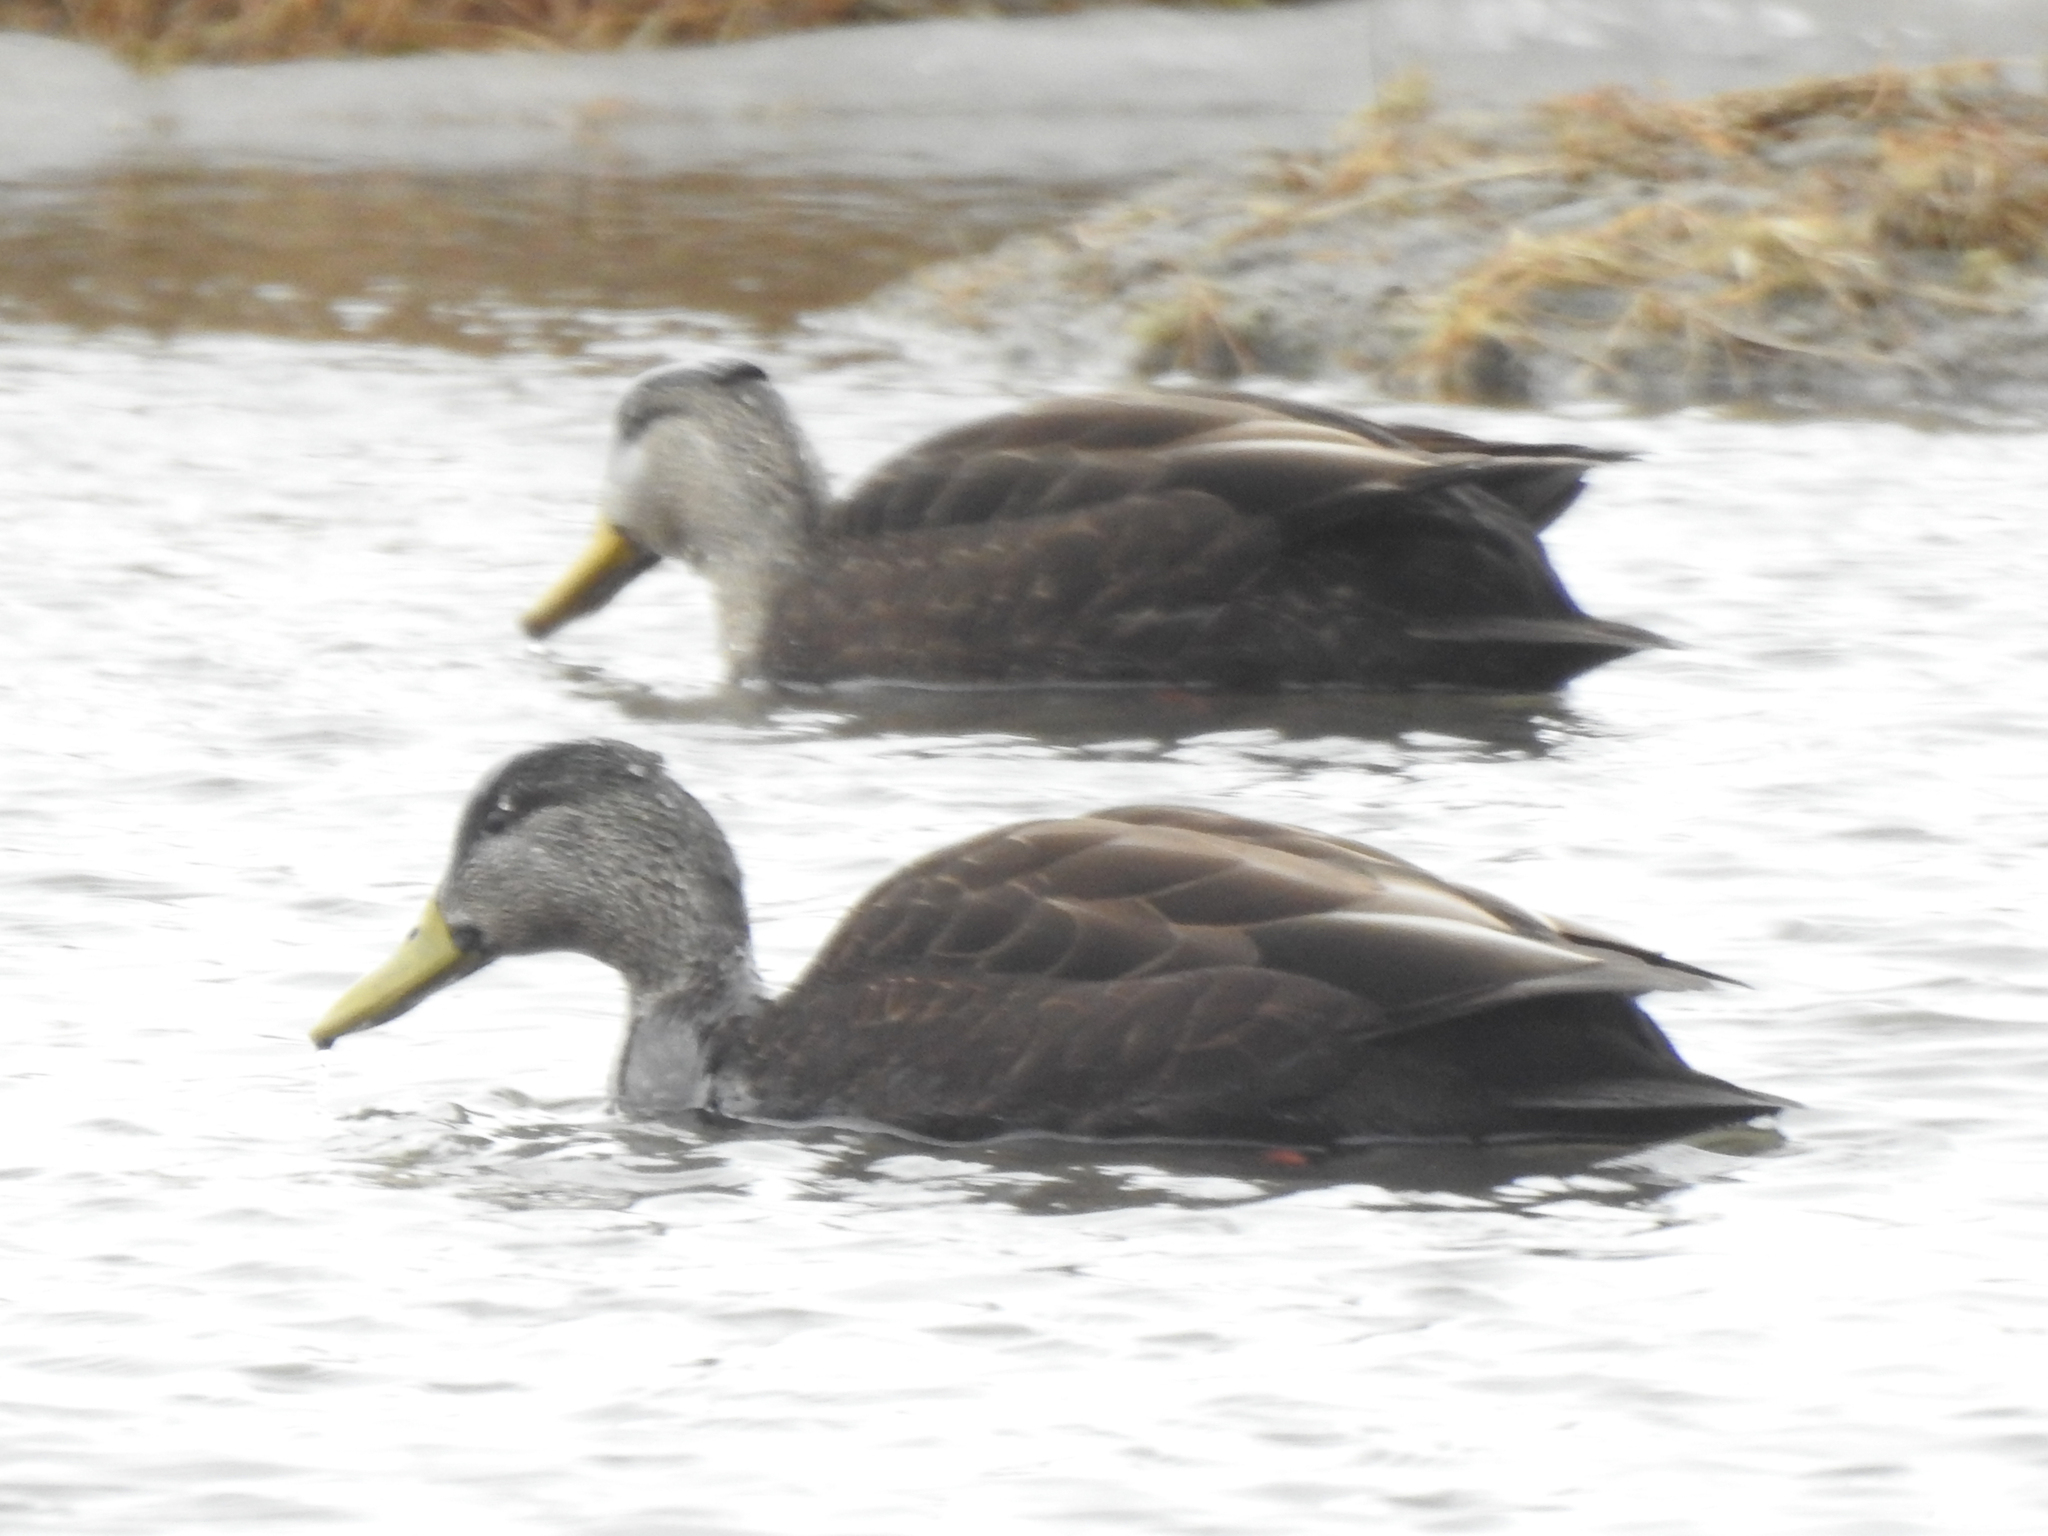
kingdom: Animalia
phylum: Chordata
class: Aves
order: Anseriformes
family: Anatidae
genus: Anas
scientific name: Anas rubripes
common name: American black duck
